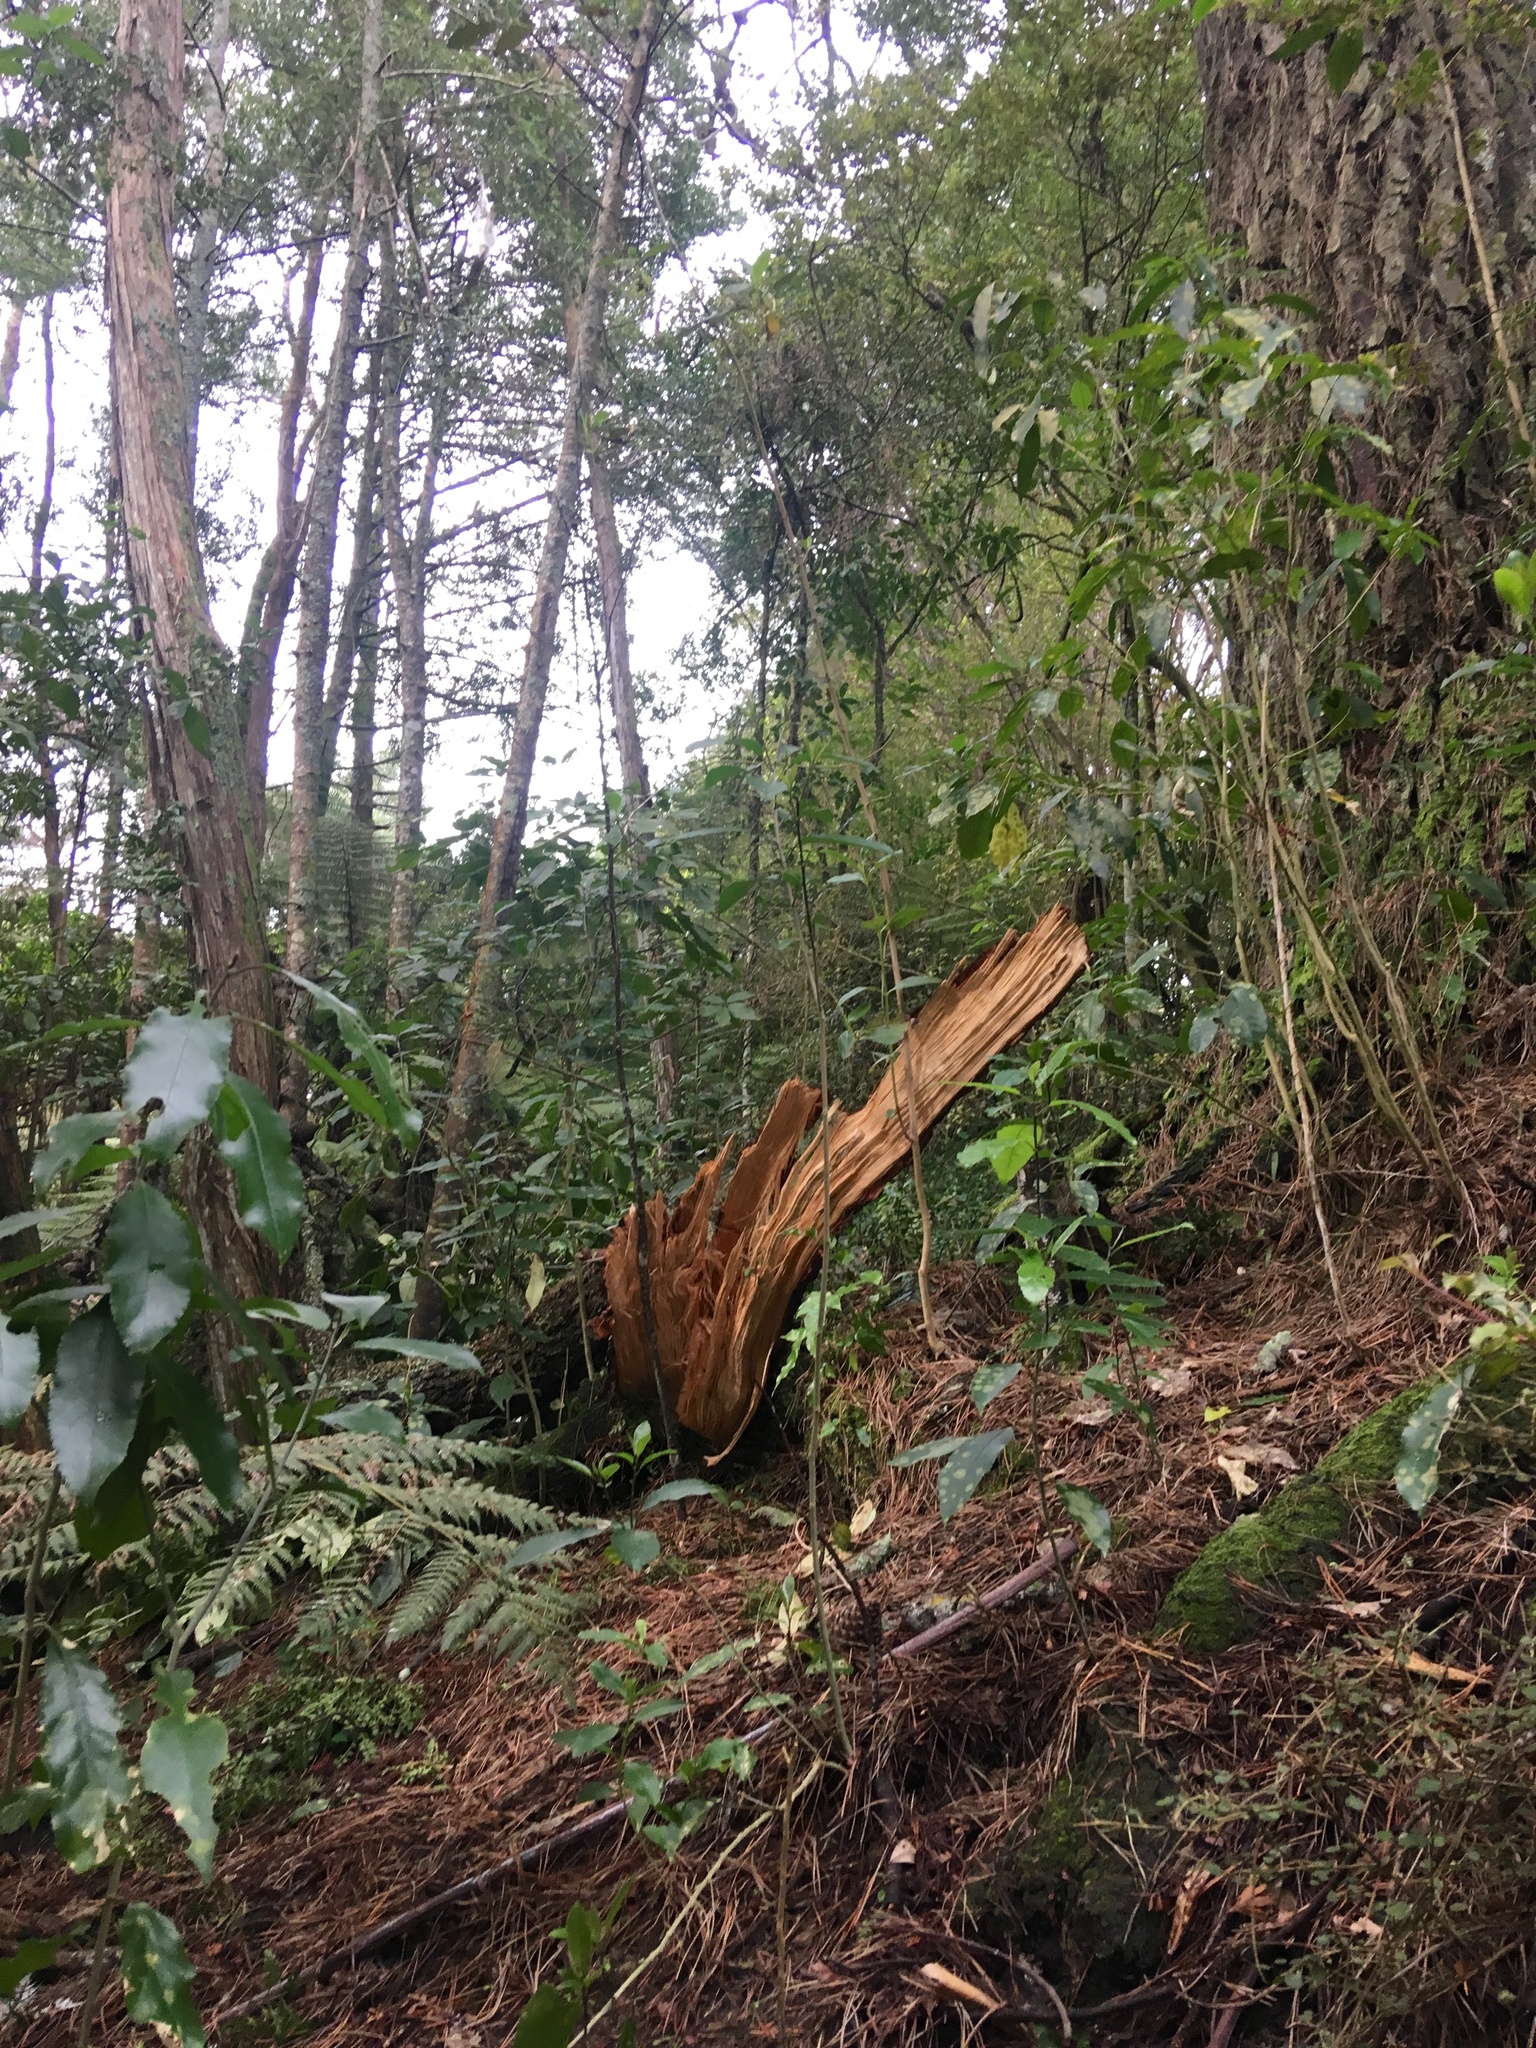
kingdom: Plantae
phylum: Tracheophyta
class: Pinopsida
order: Pinales
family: Phyllocladaceae
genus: Phyllocladus
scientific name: Phyllocladus trichomanoides
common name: Celery pine
